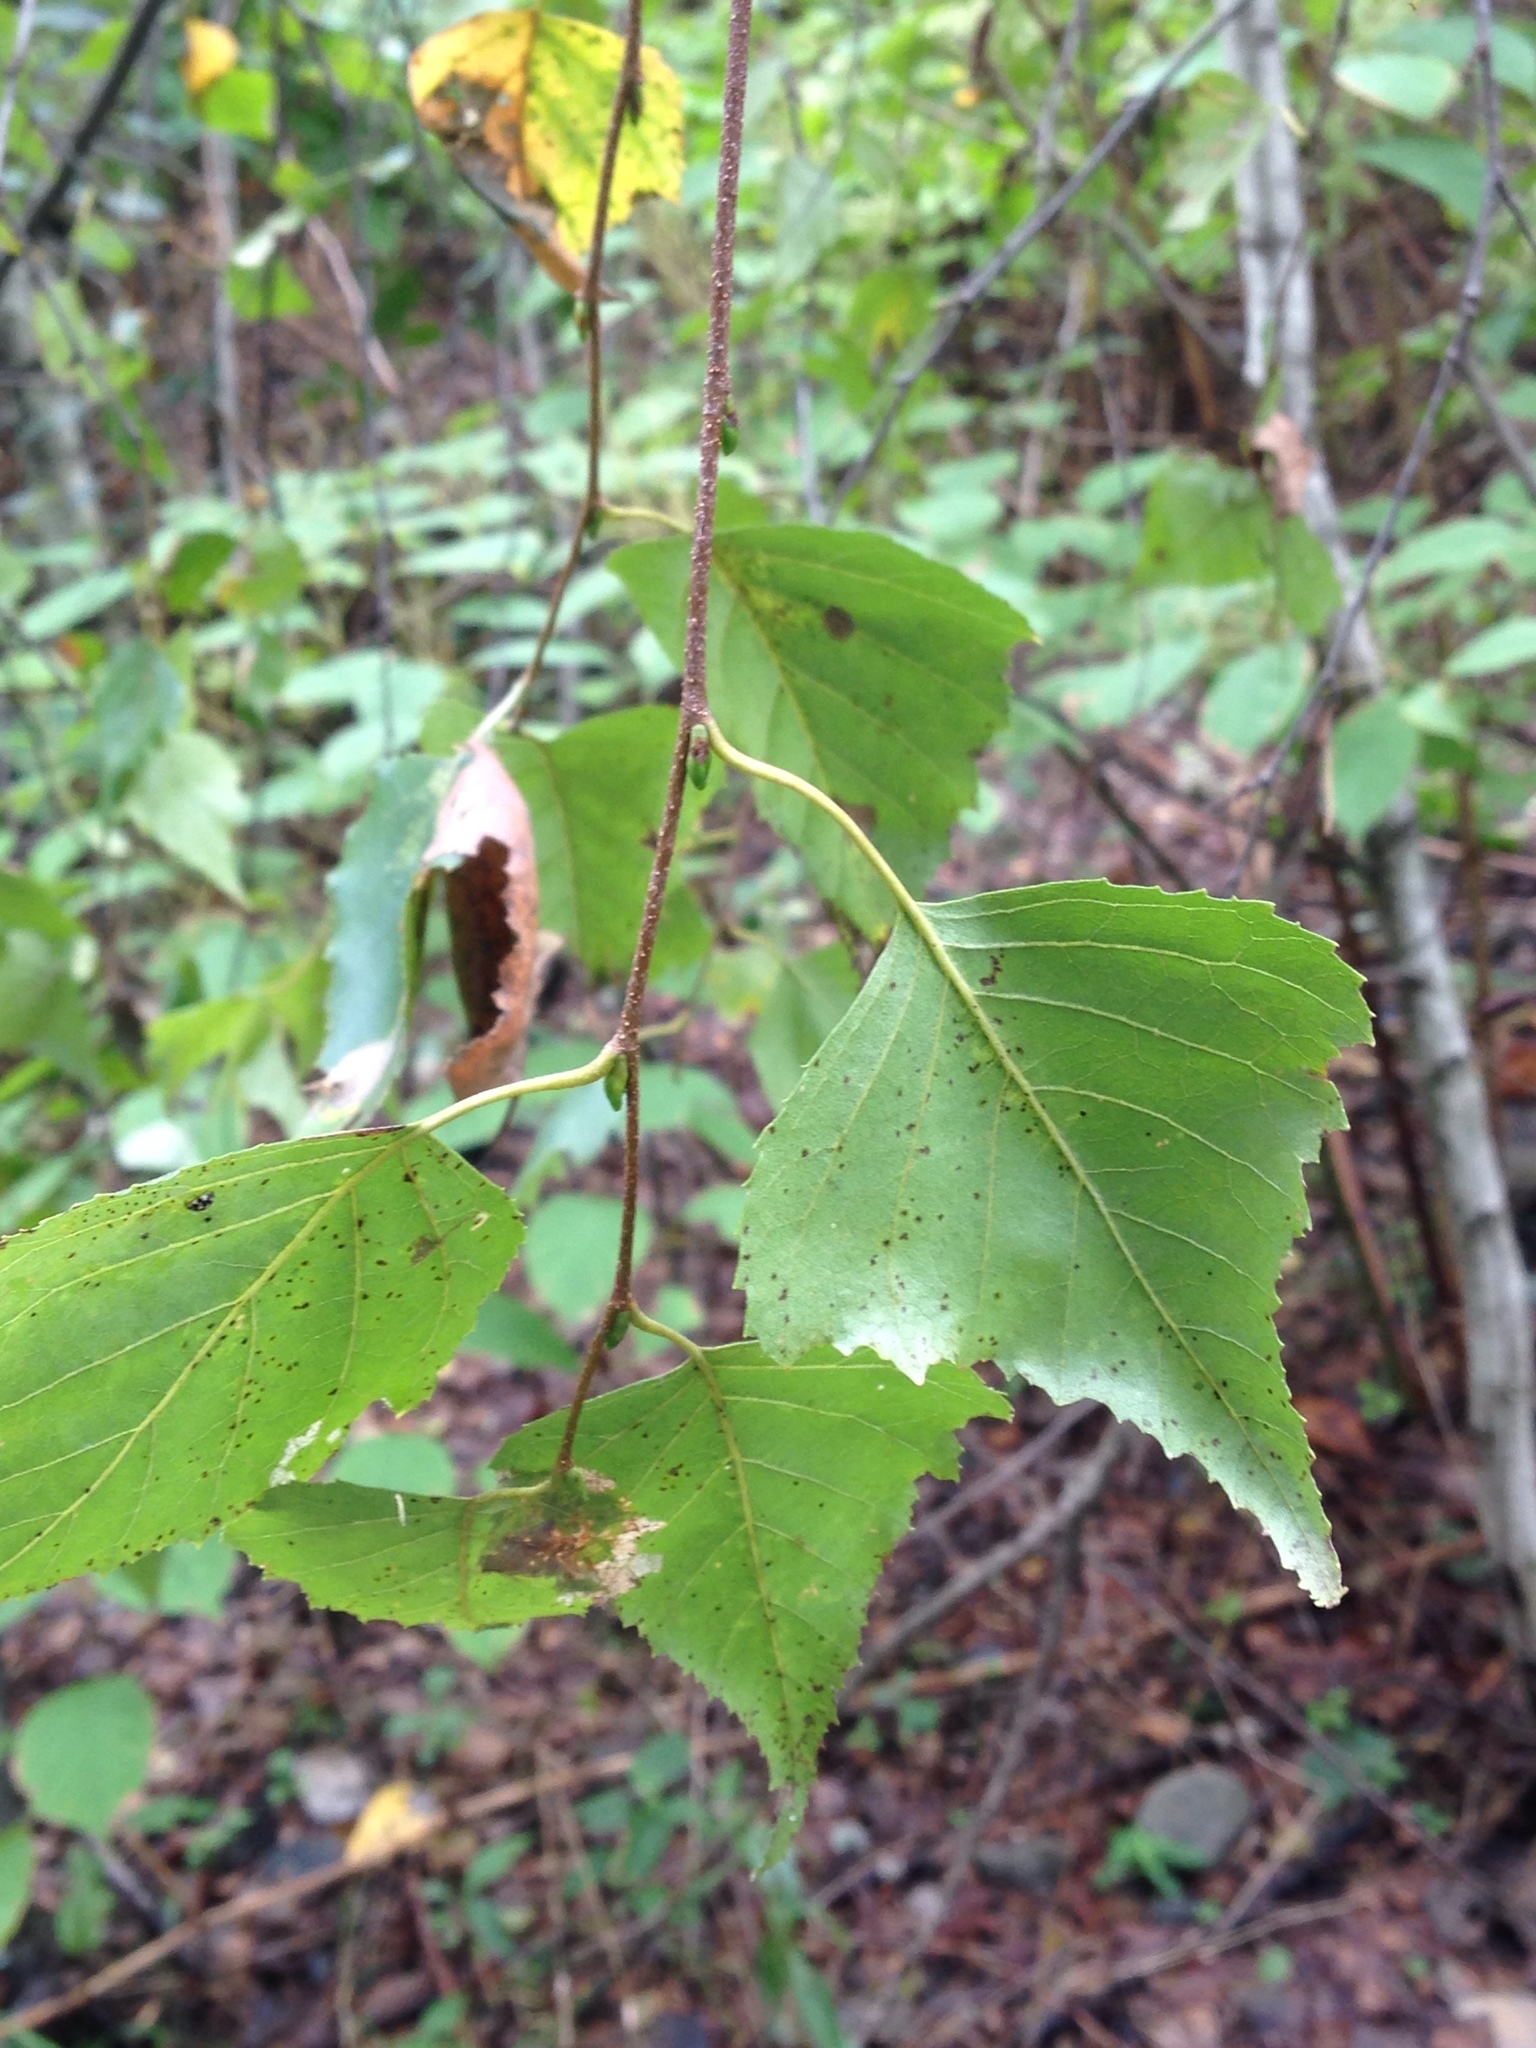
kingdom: Plantae
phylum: Tracheophyta
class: Magnoliopsida
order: Fagales
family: Betulaceae
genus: Betula
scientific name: Betula populifolia
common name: Fire birch
